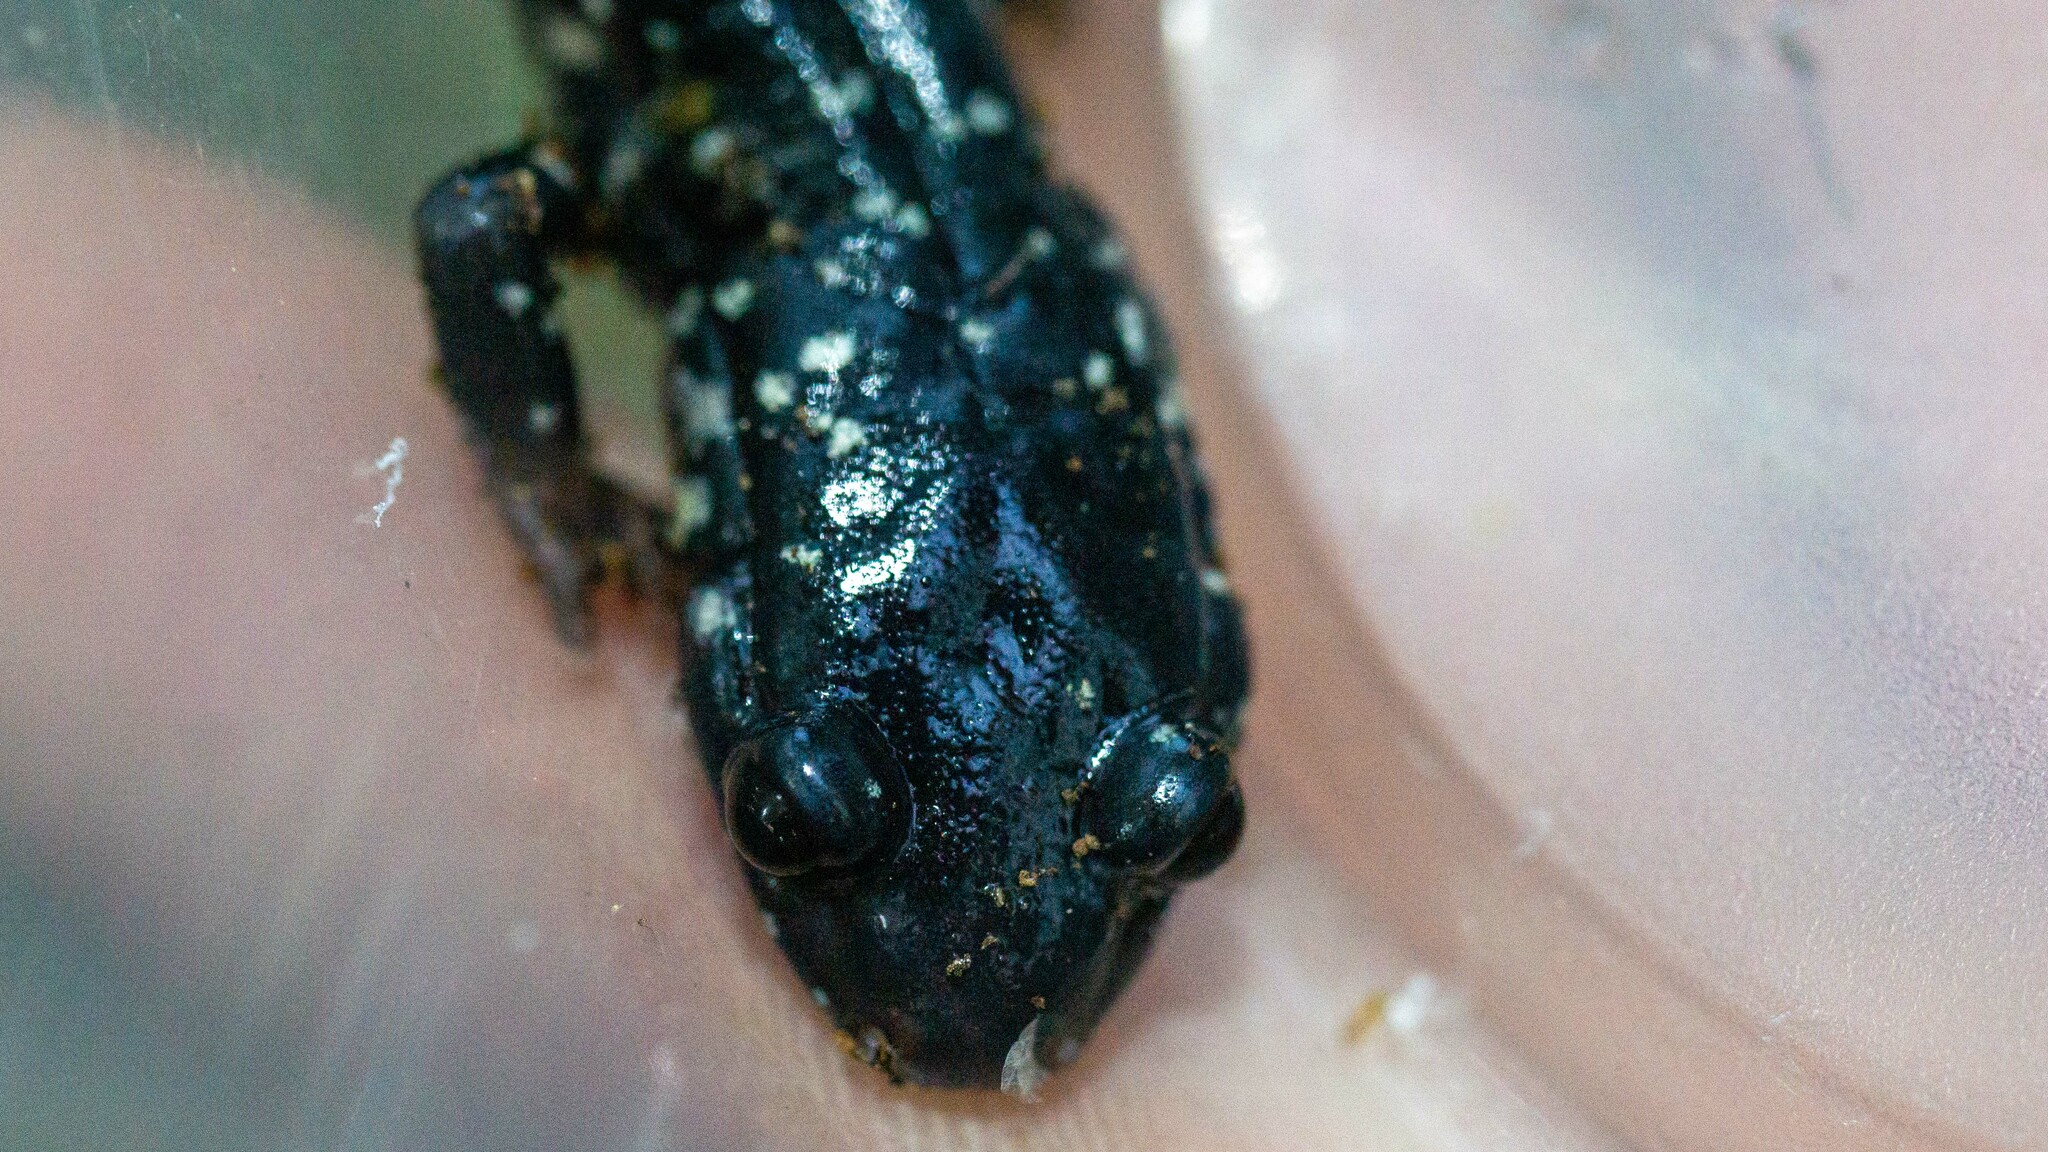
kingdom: Animalia
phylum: Chordata
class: Amphibia
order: Caudata
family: Plethodontidae
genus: Plethodon
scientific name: Plethodon glutinosus
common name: Northern slimy salamander
